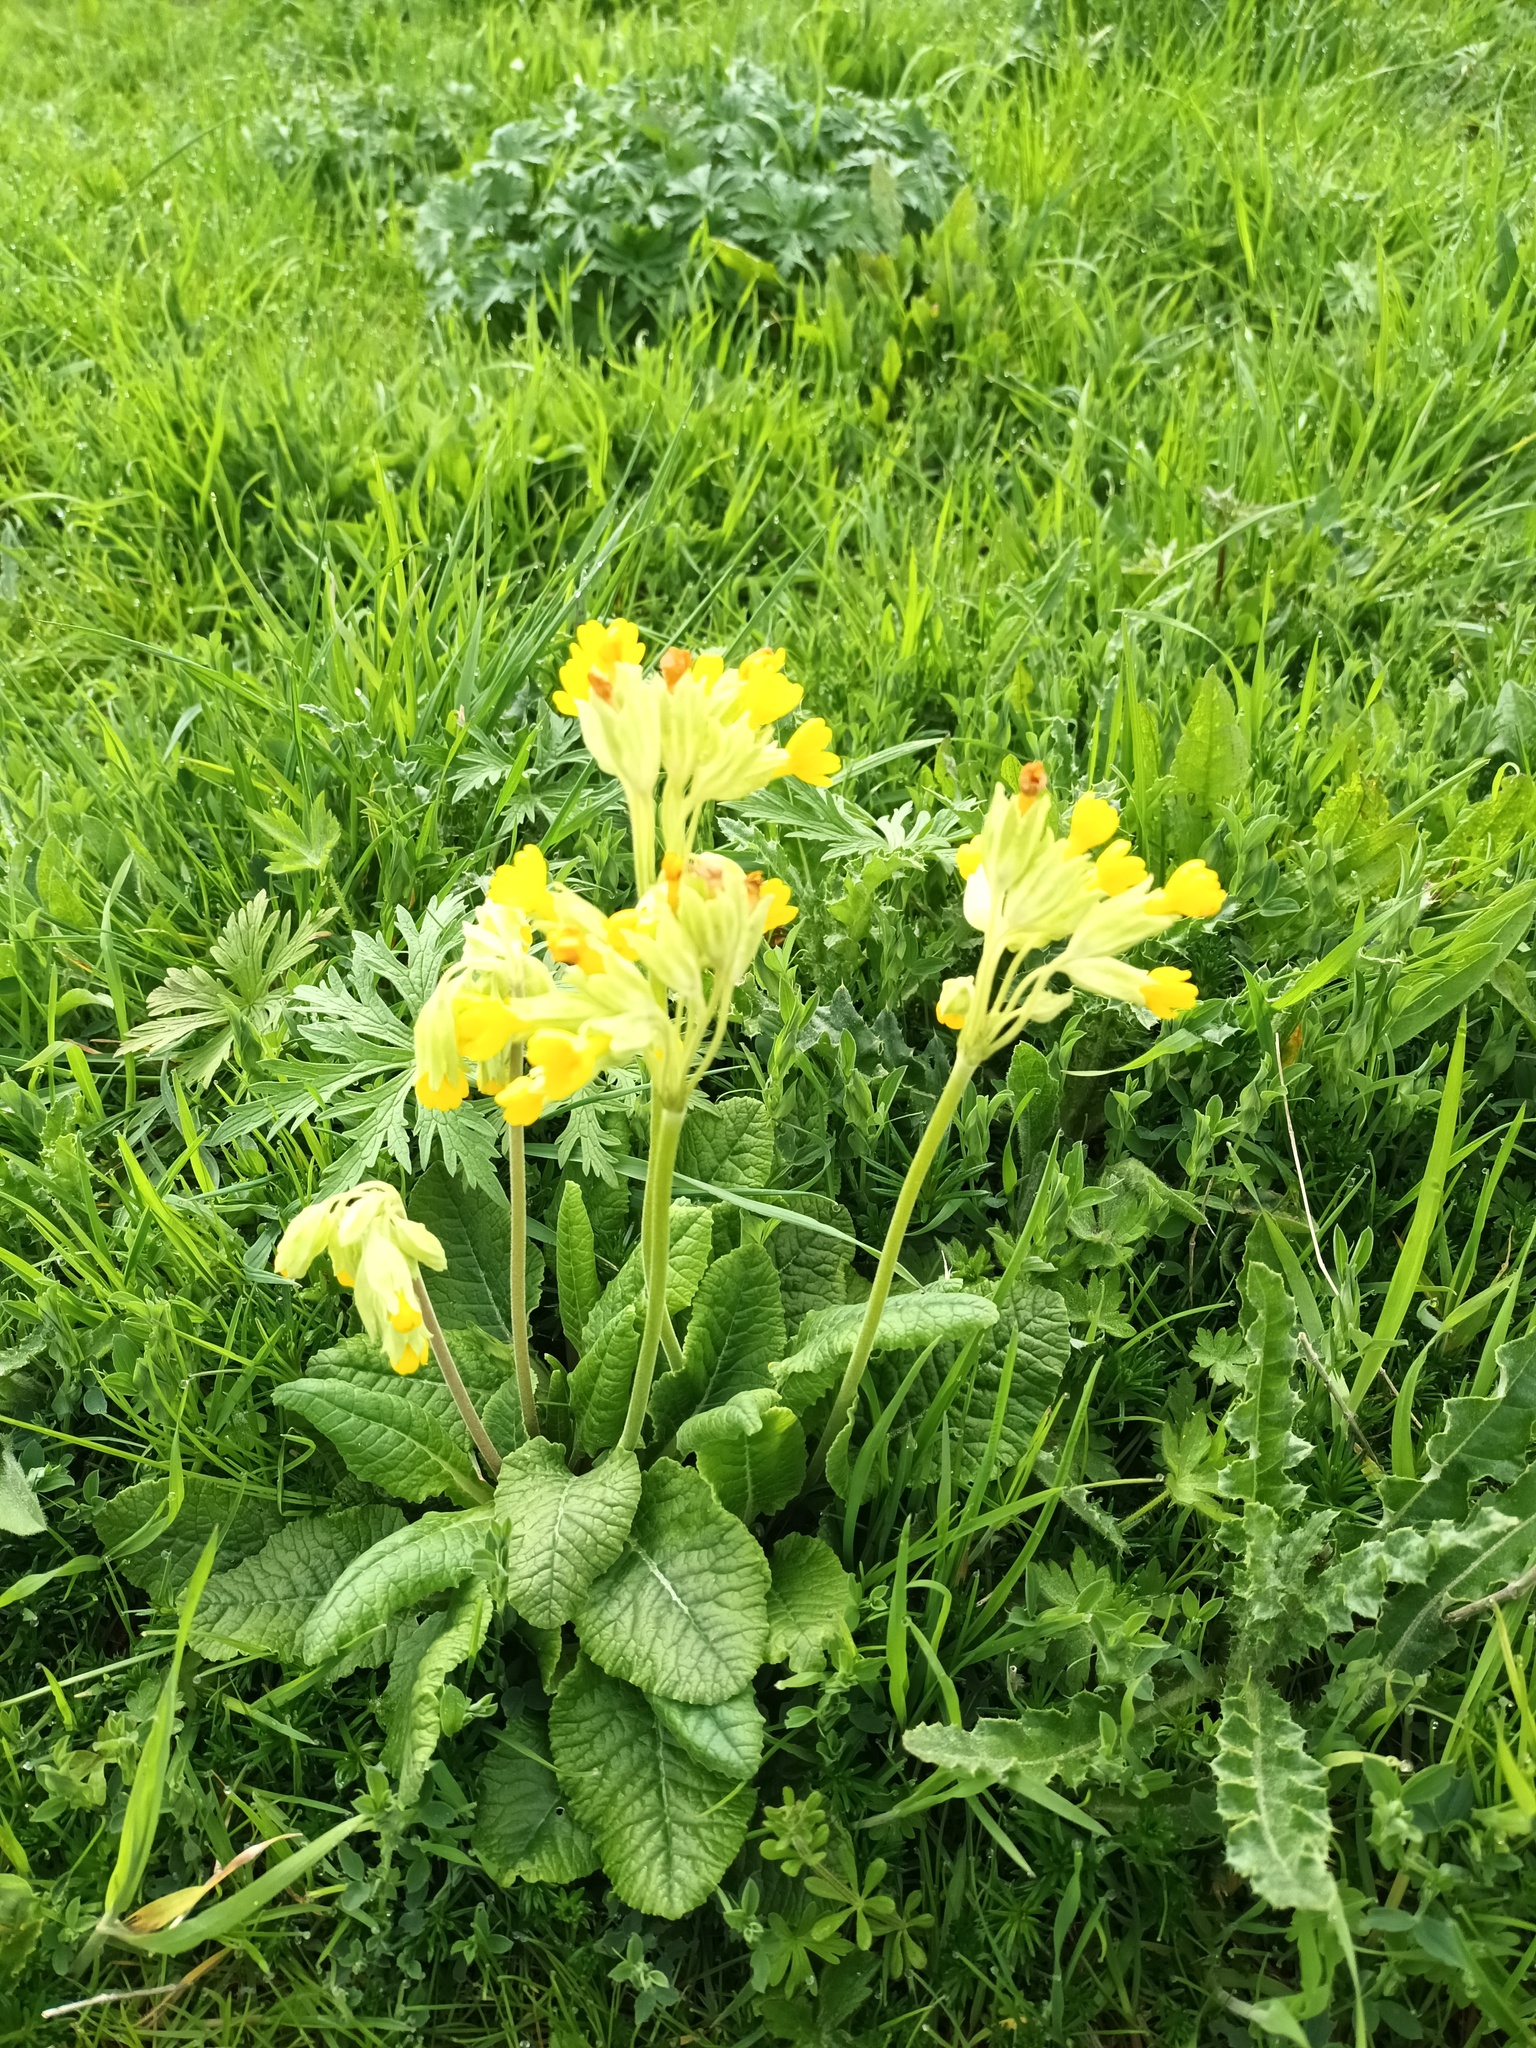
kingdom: Plantae
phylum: Tracheophyta
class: Magnoliopsida
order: Ericales
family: Primulaceae
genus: Primula
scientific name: Primula veris
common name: Cowslip
